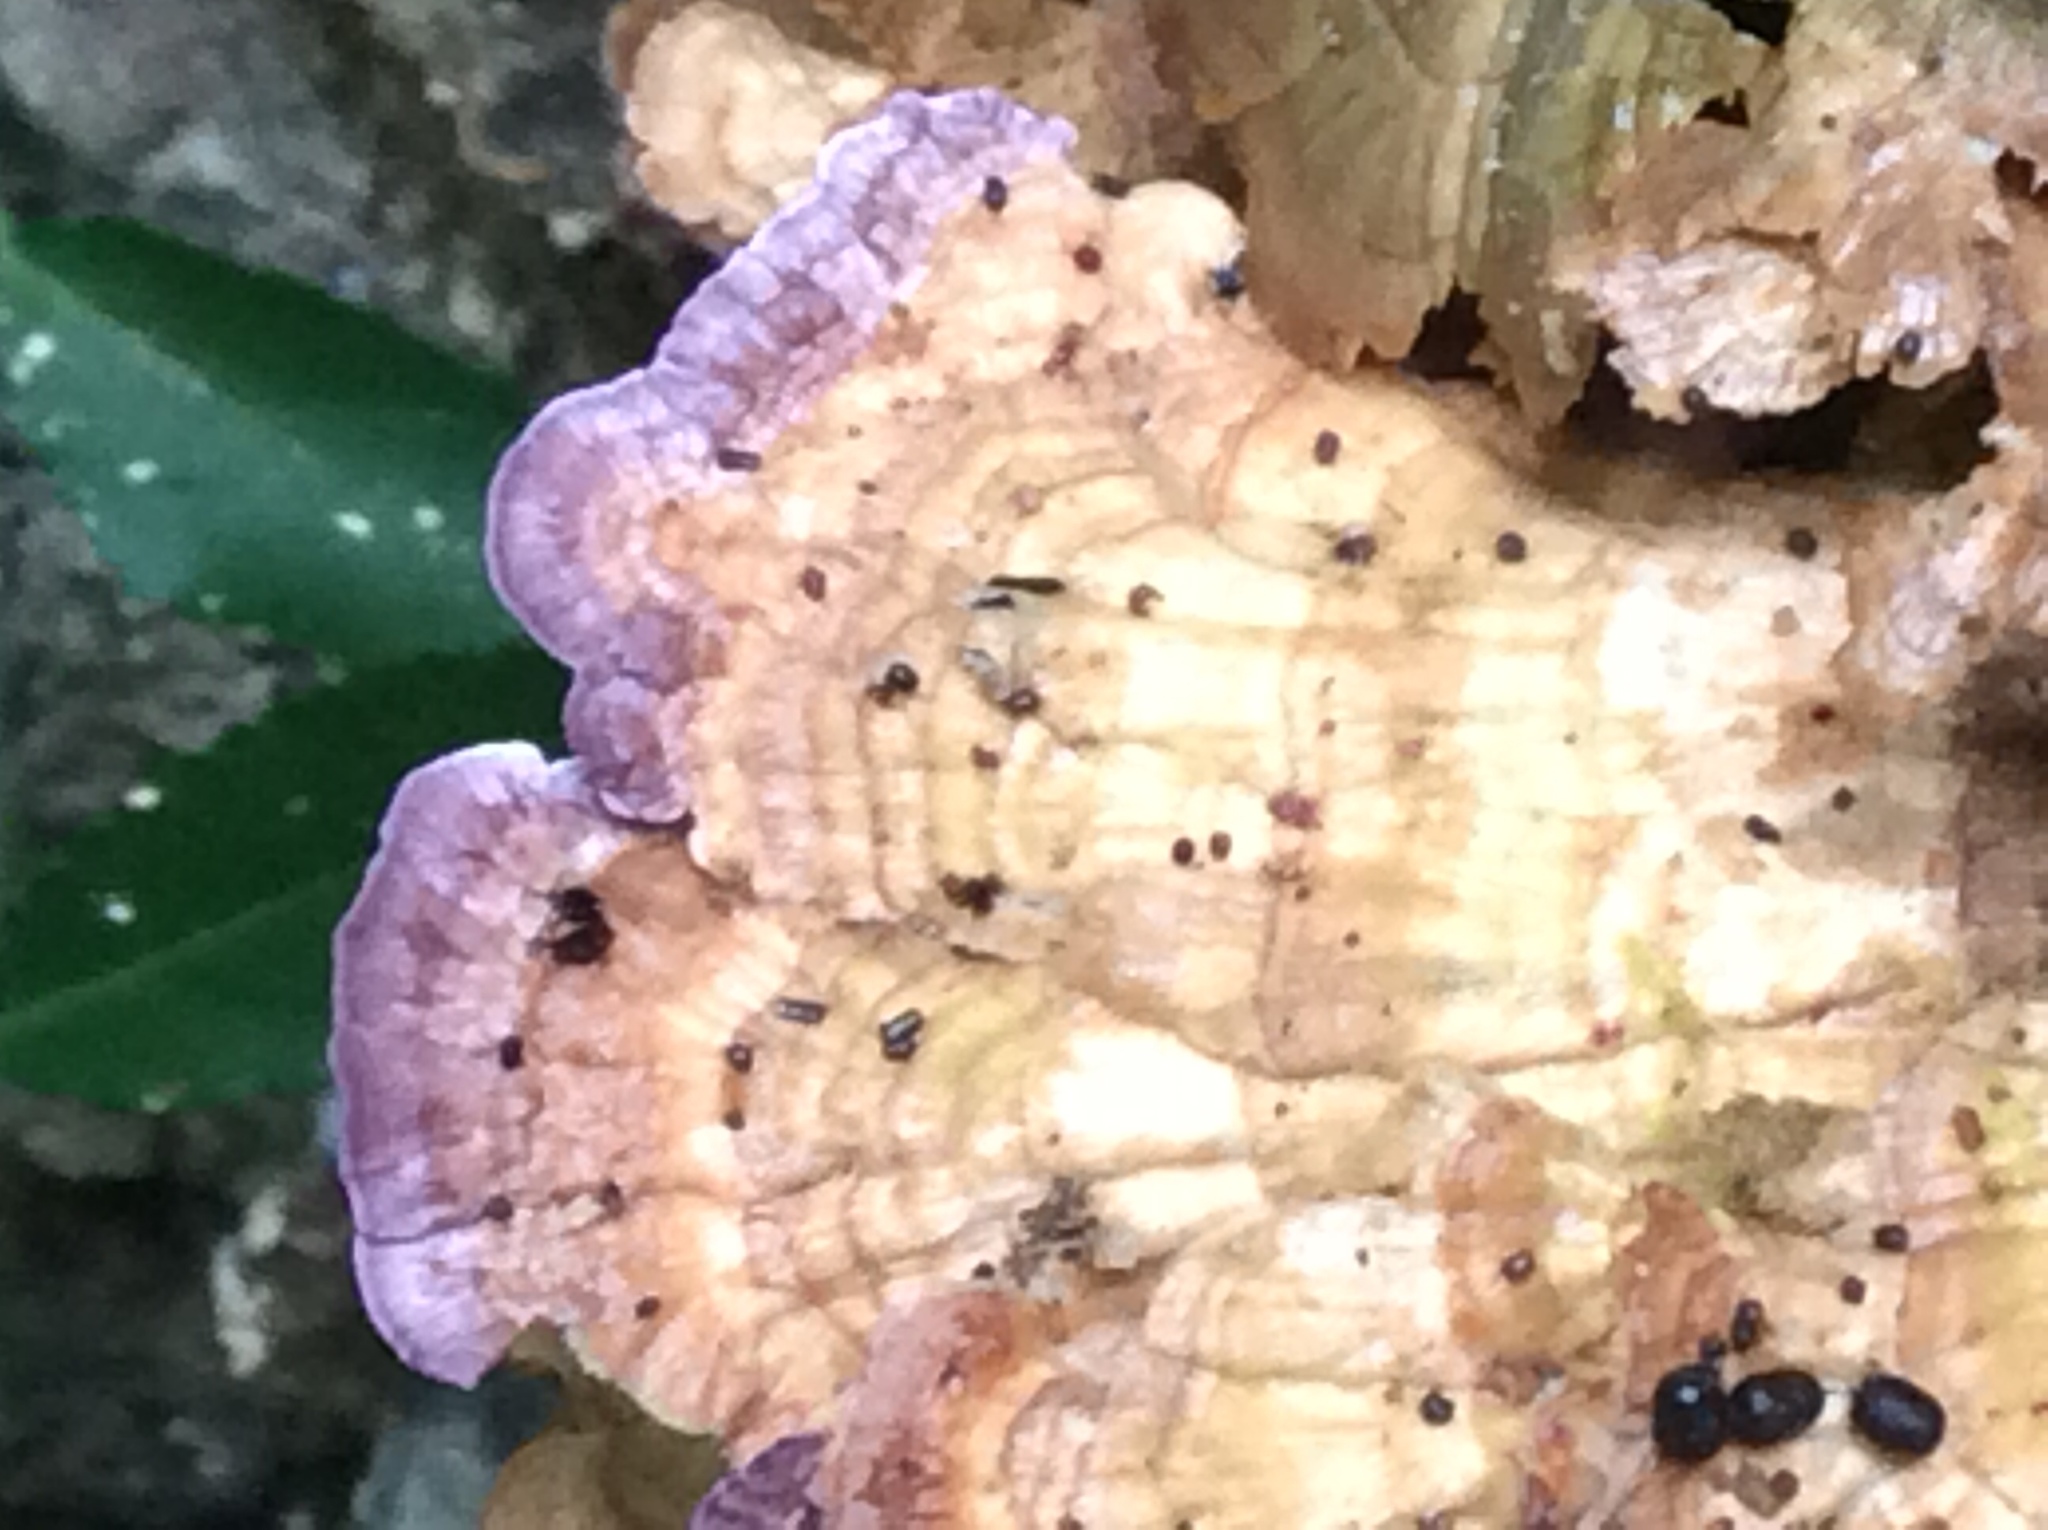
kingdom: Fungi
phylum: Basidiomycota
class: Agaricomycetes
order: Hymenochaetales
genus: Trichaptum
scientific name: Trichaptum biforme
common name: Violet-toothed polypore
